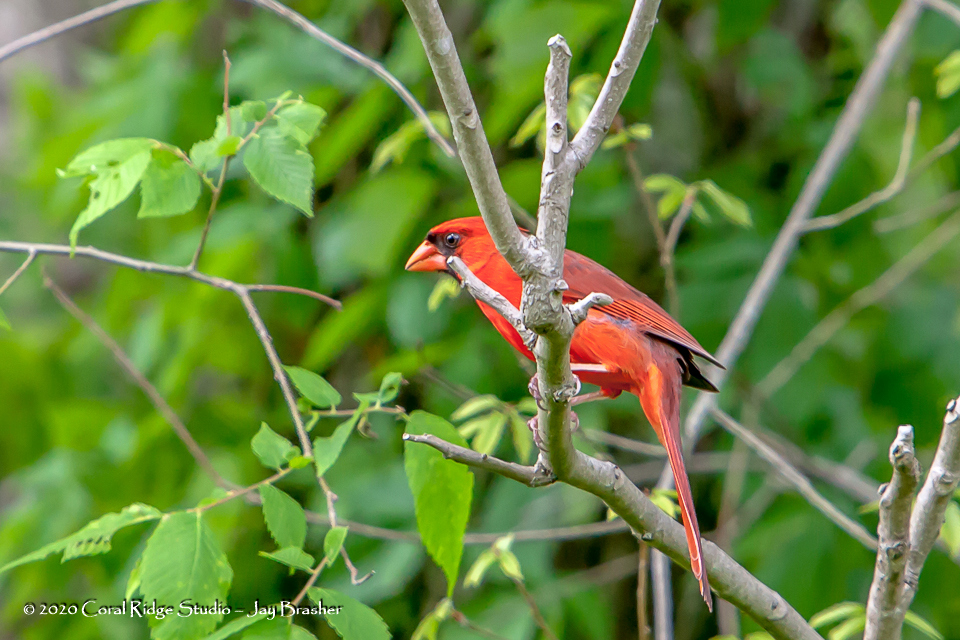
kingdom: Animalia
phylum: Chordata
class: Aves
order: Passeriformes
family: Cardinalidae
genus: Cardinalis
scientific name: Cardinalis cardinalis
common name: Northern cardinal
